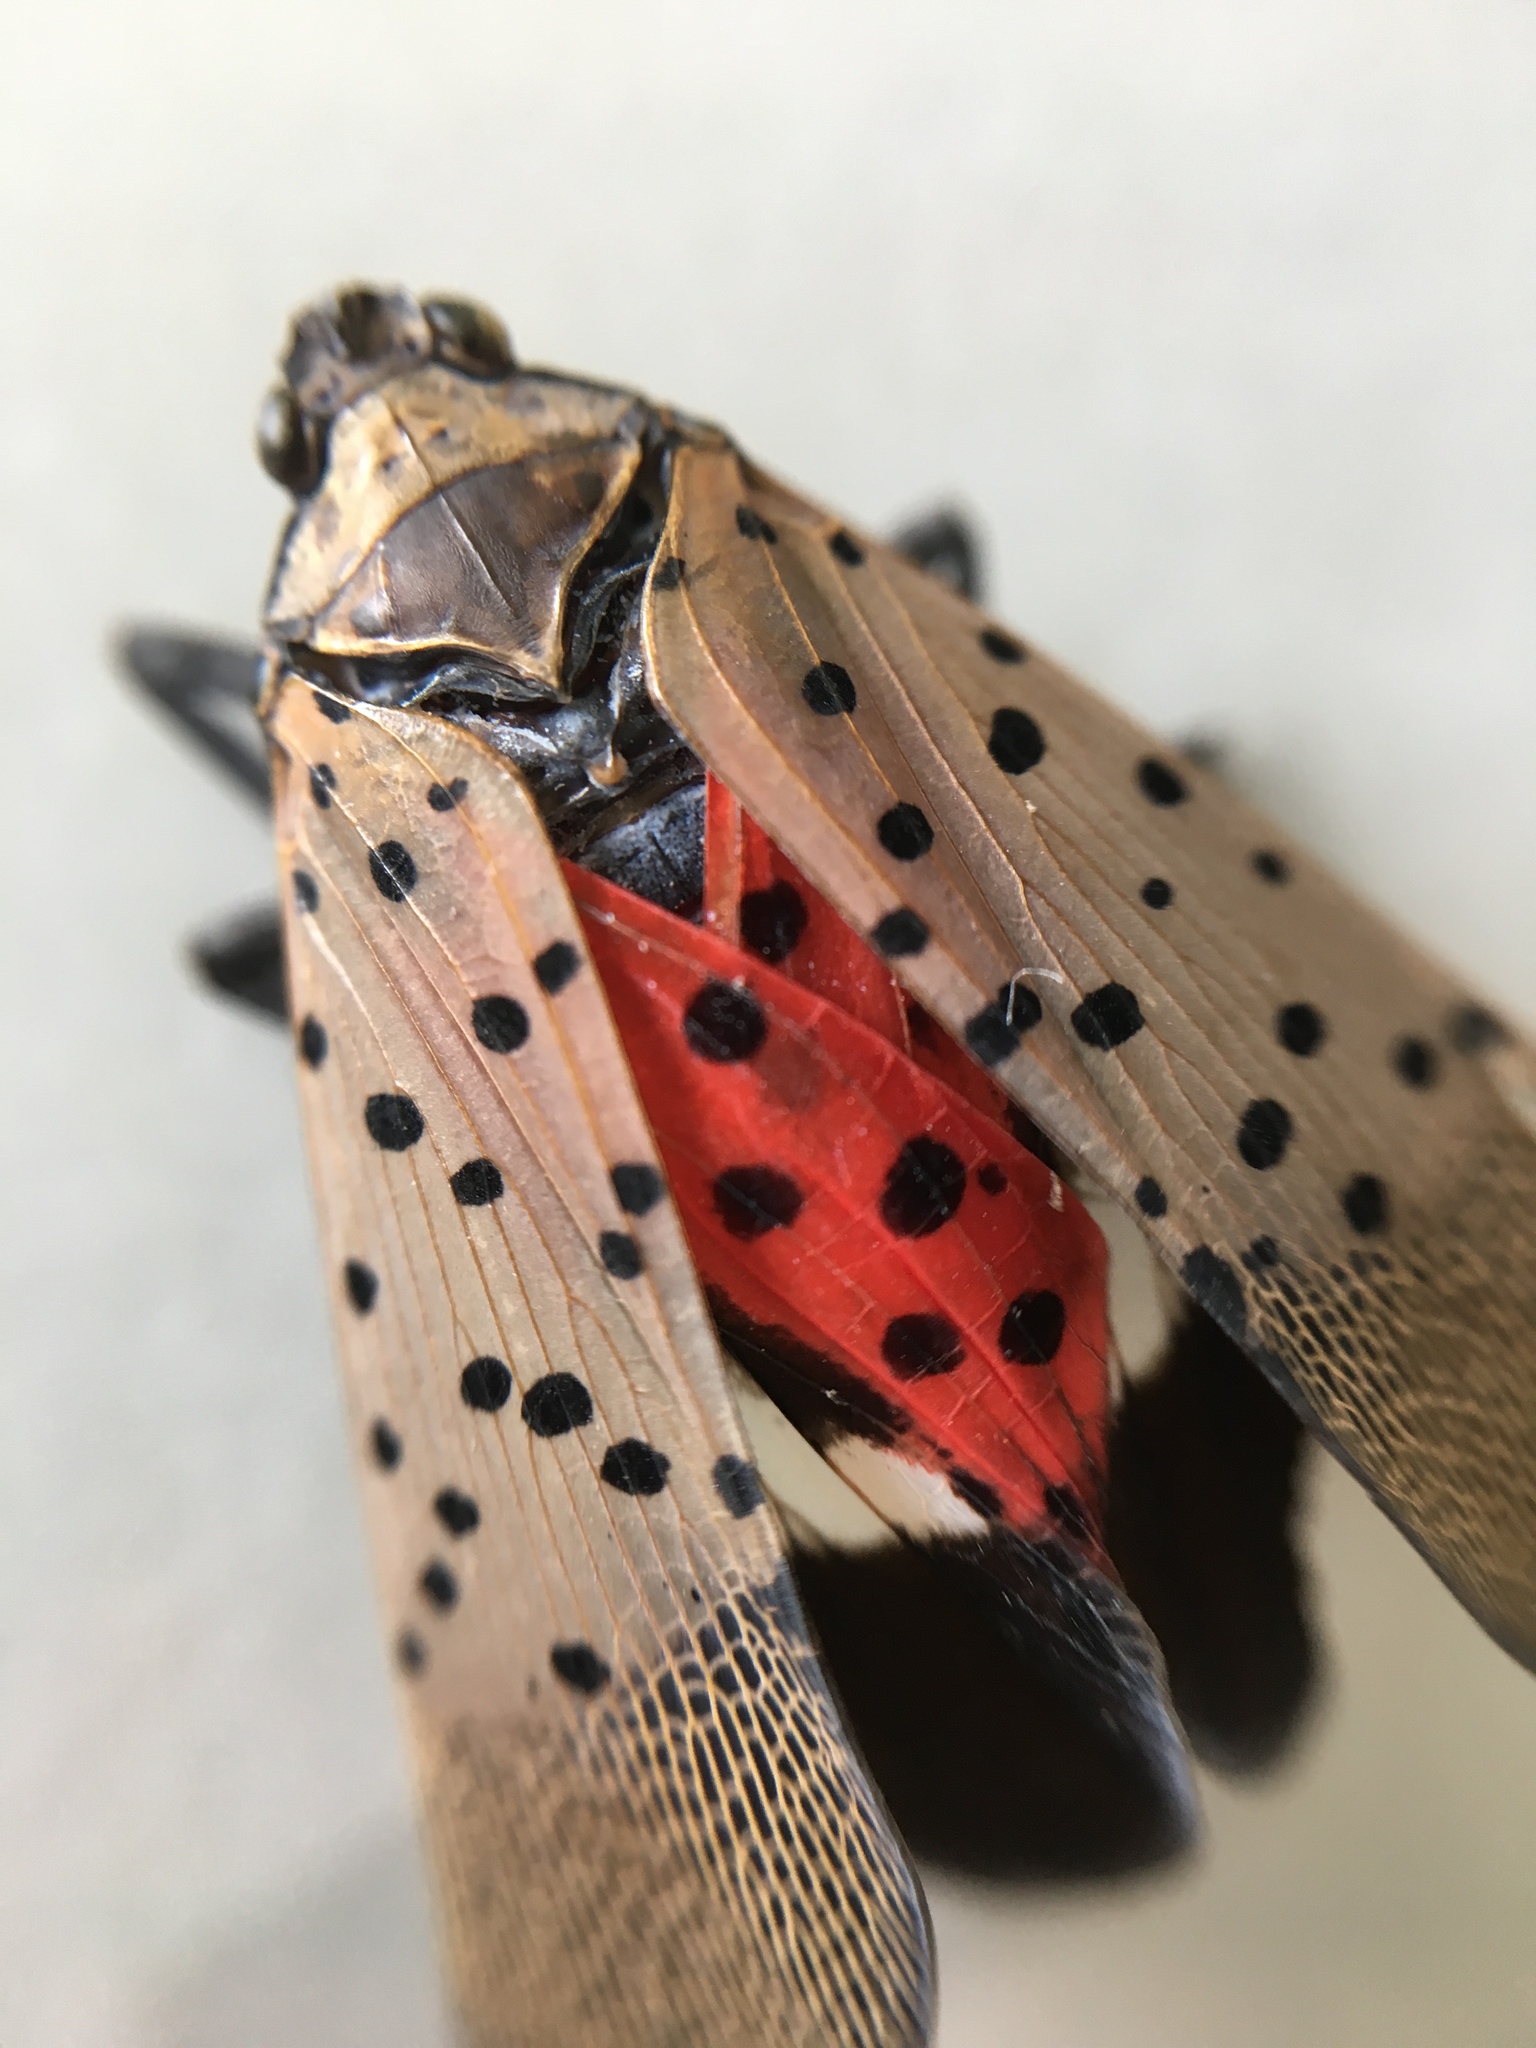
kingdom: Animalia
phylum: Arthropoda
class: Insecta
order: Hemiptera
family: Fulgoridae
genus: Lycorma
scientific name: Lycorma delicatula
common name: Spotted lanternfly
